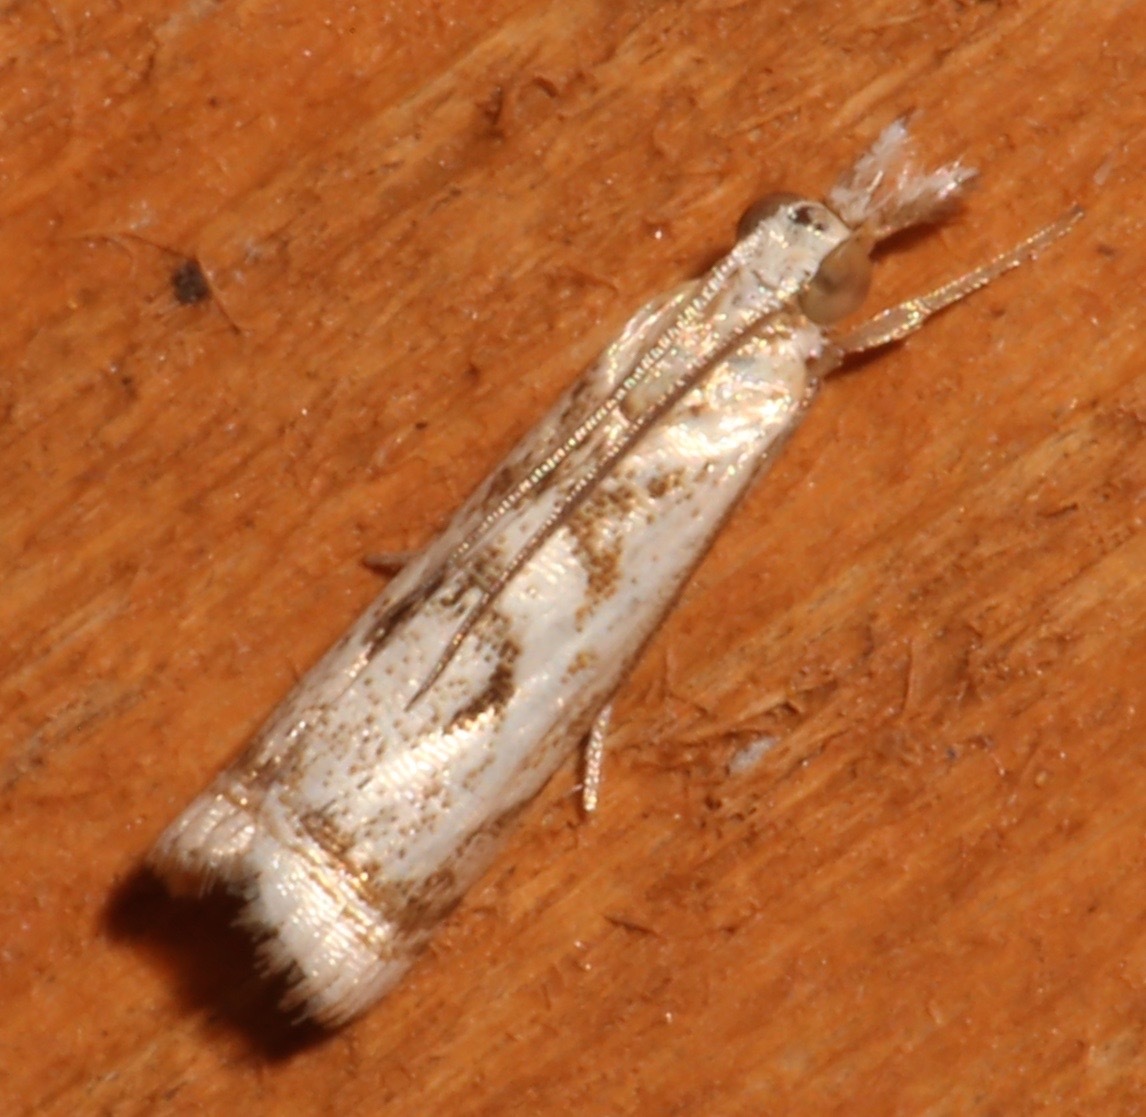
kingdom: Animalia
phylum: Arthropoda
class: Insecta
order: Lepidoptera
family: Crambidae
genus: Microcrambus
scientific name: Microcrambus elegans
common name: Elegant grass-veneer
